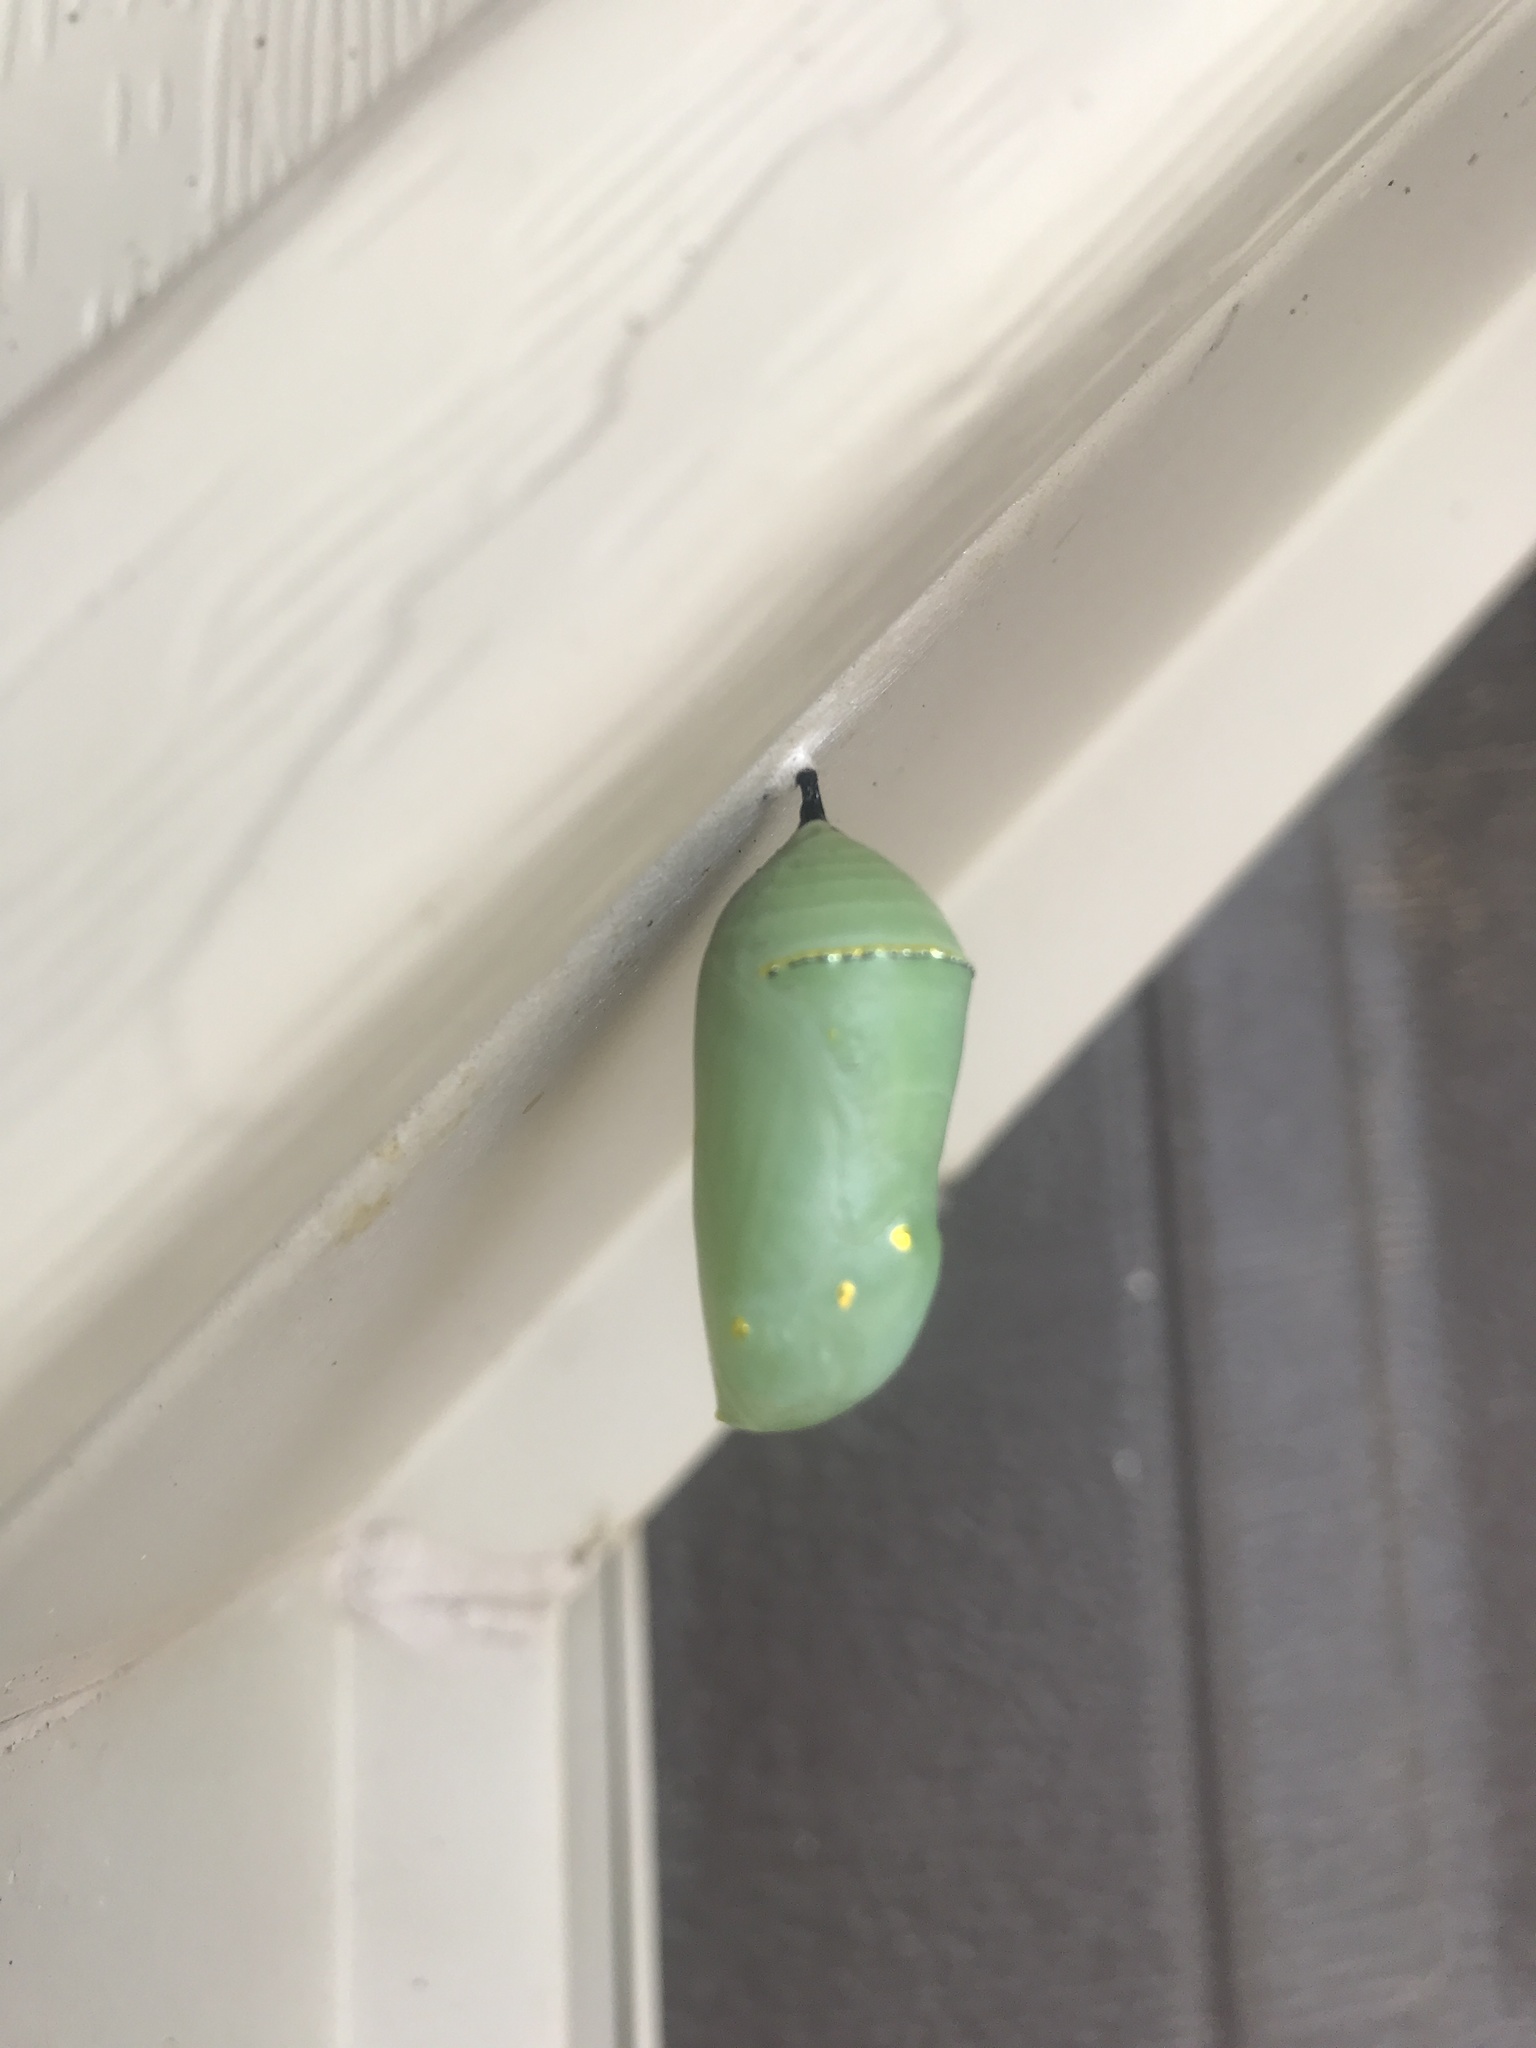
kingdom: Animalia
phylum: Arthropoda
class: Insecta
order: Lepidoptera
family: Nymphalidae
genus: Danaus
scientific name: Danaus plexippus
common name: Monarch
